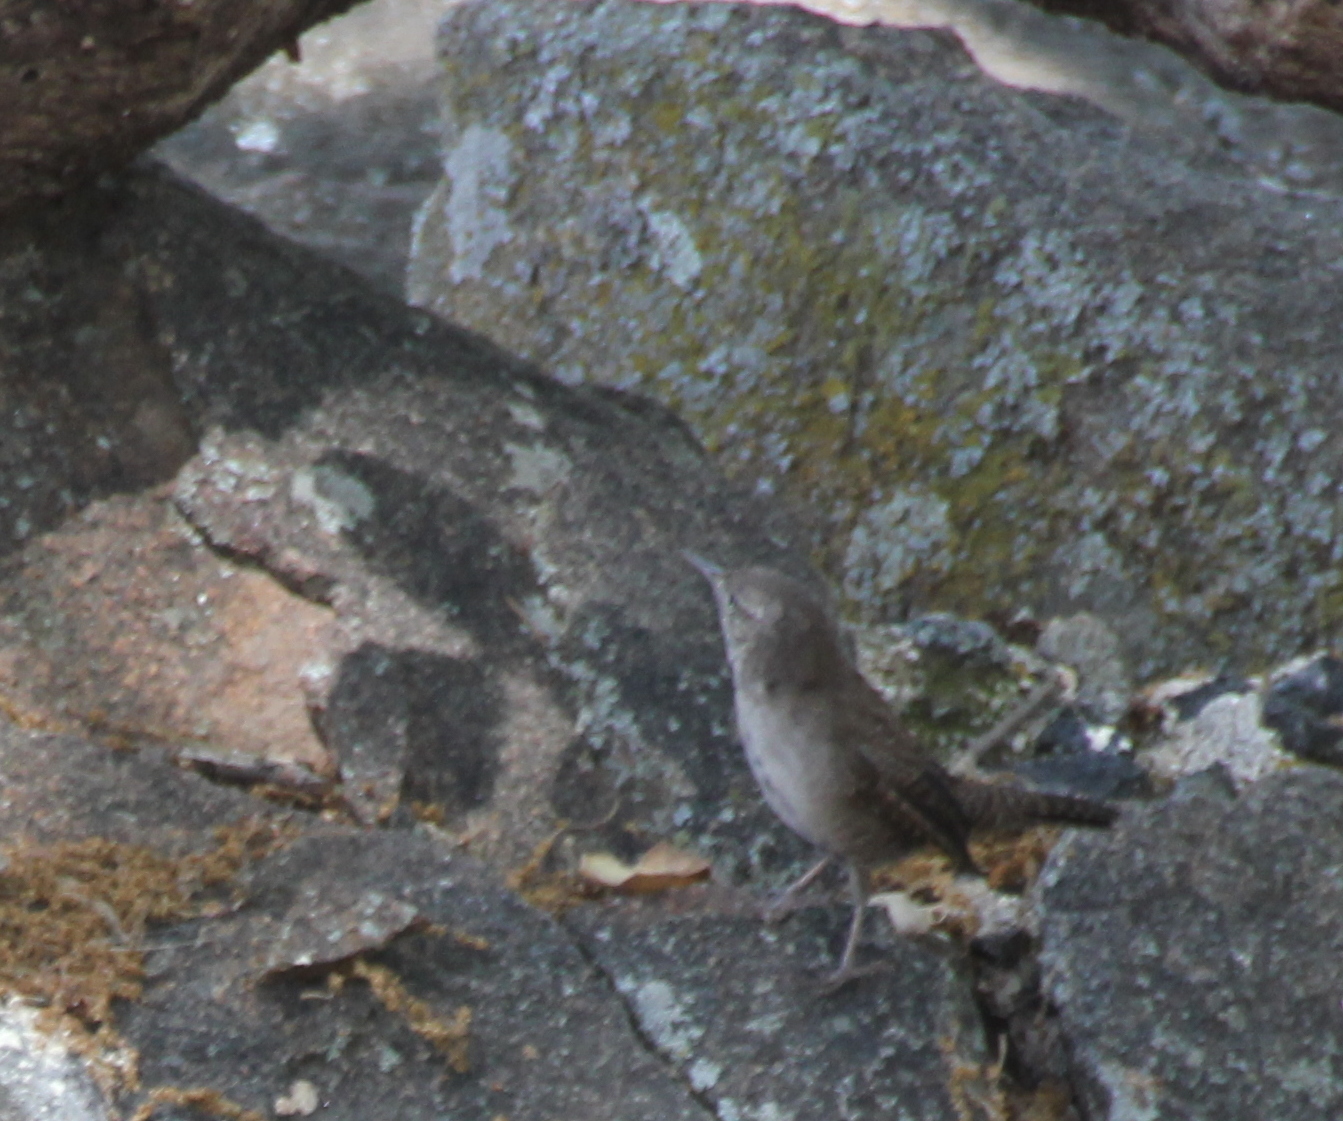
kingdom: Animalia
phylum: Chordata
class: Aves
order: Passeriformes
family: Troglodytidae
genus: Troglodytes
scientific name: Troglodytes aedon
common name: House wren
